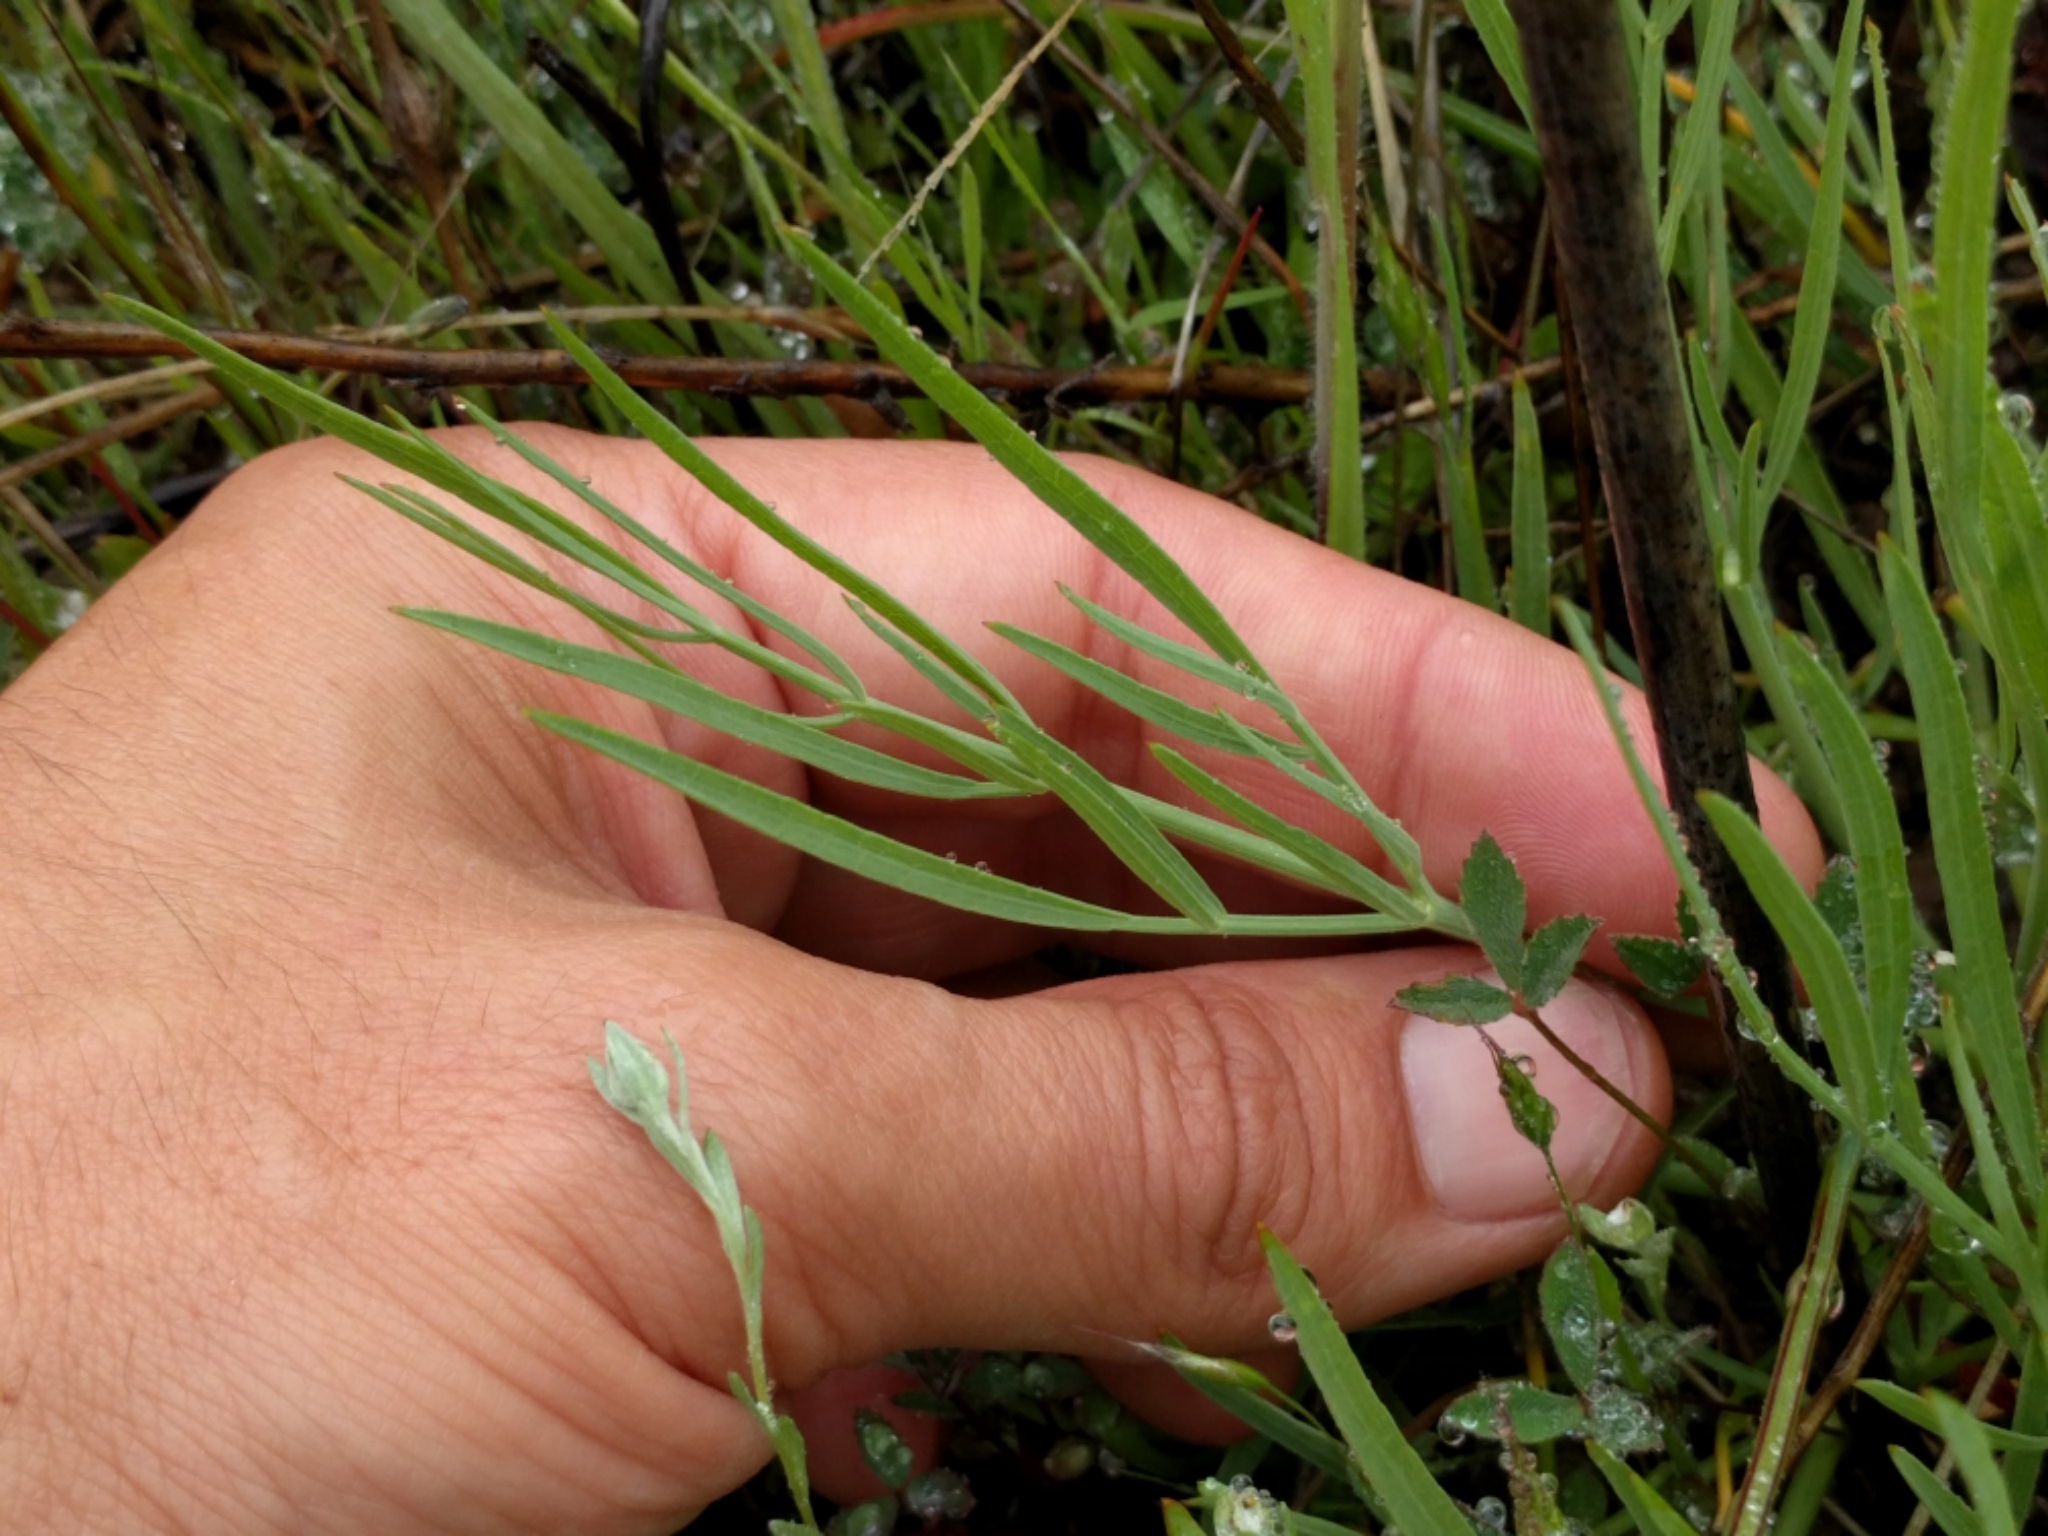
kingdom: Plantae
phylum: Tracheophyta
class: Magnoliopsida
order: Apiales
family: Apiaceae
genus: Perideridia
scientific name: Perideridia kelloggii
